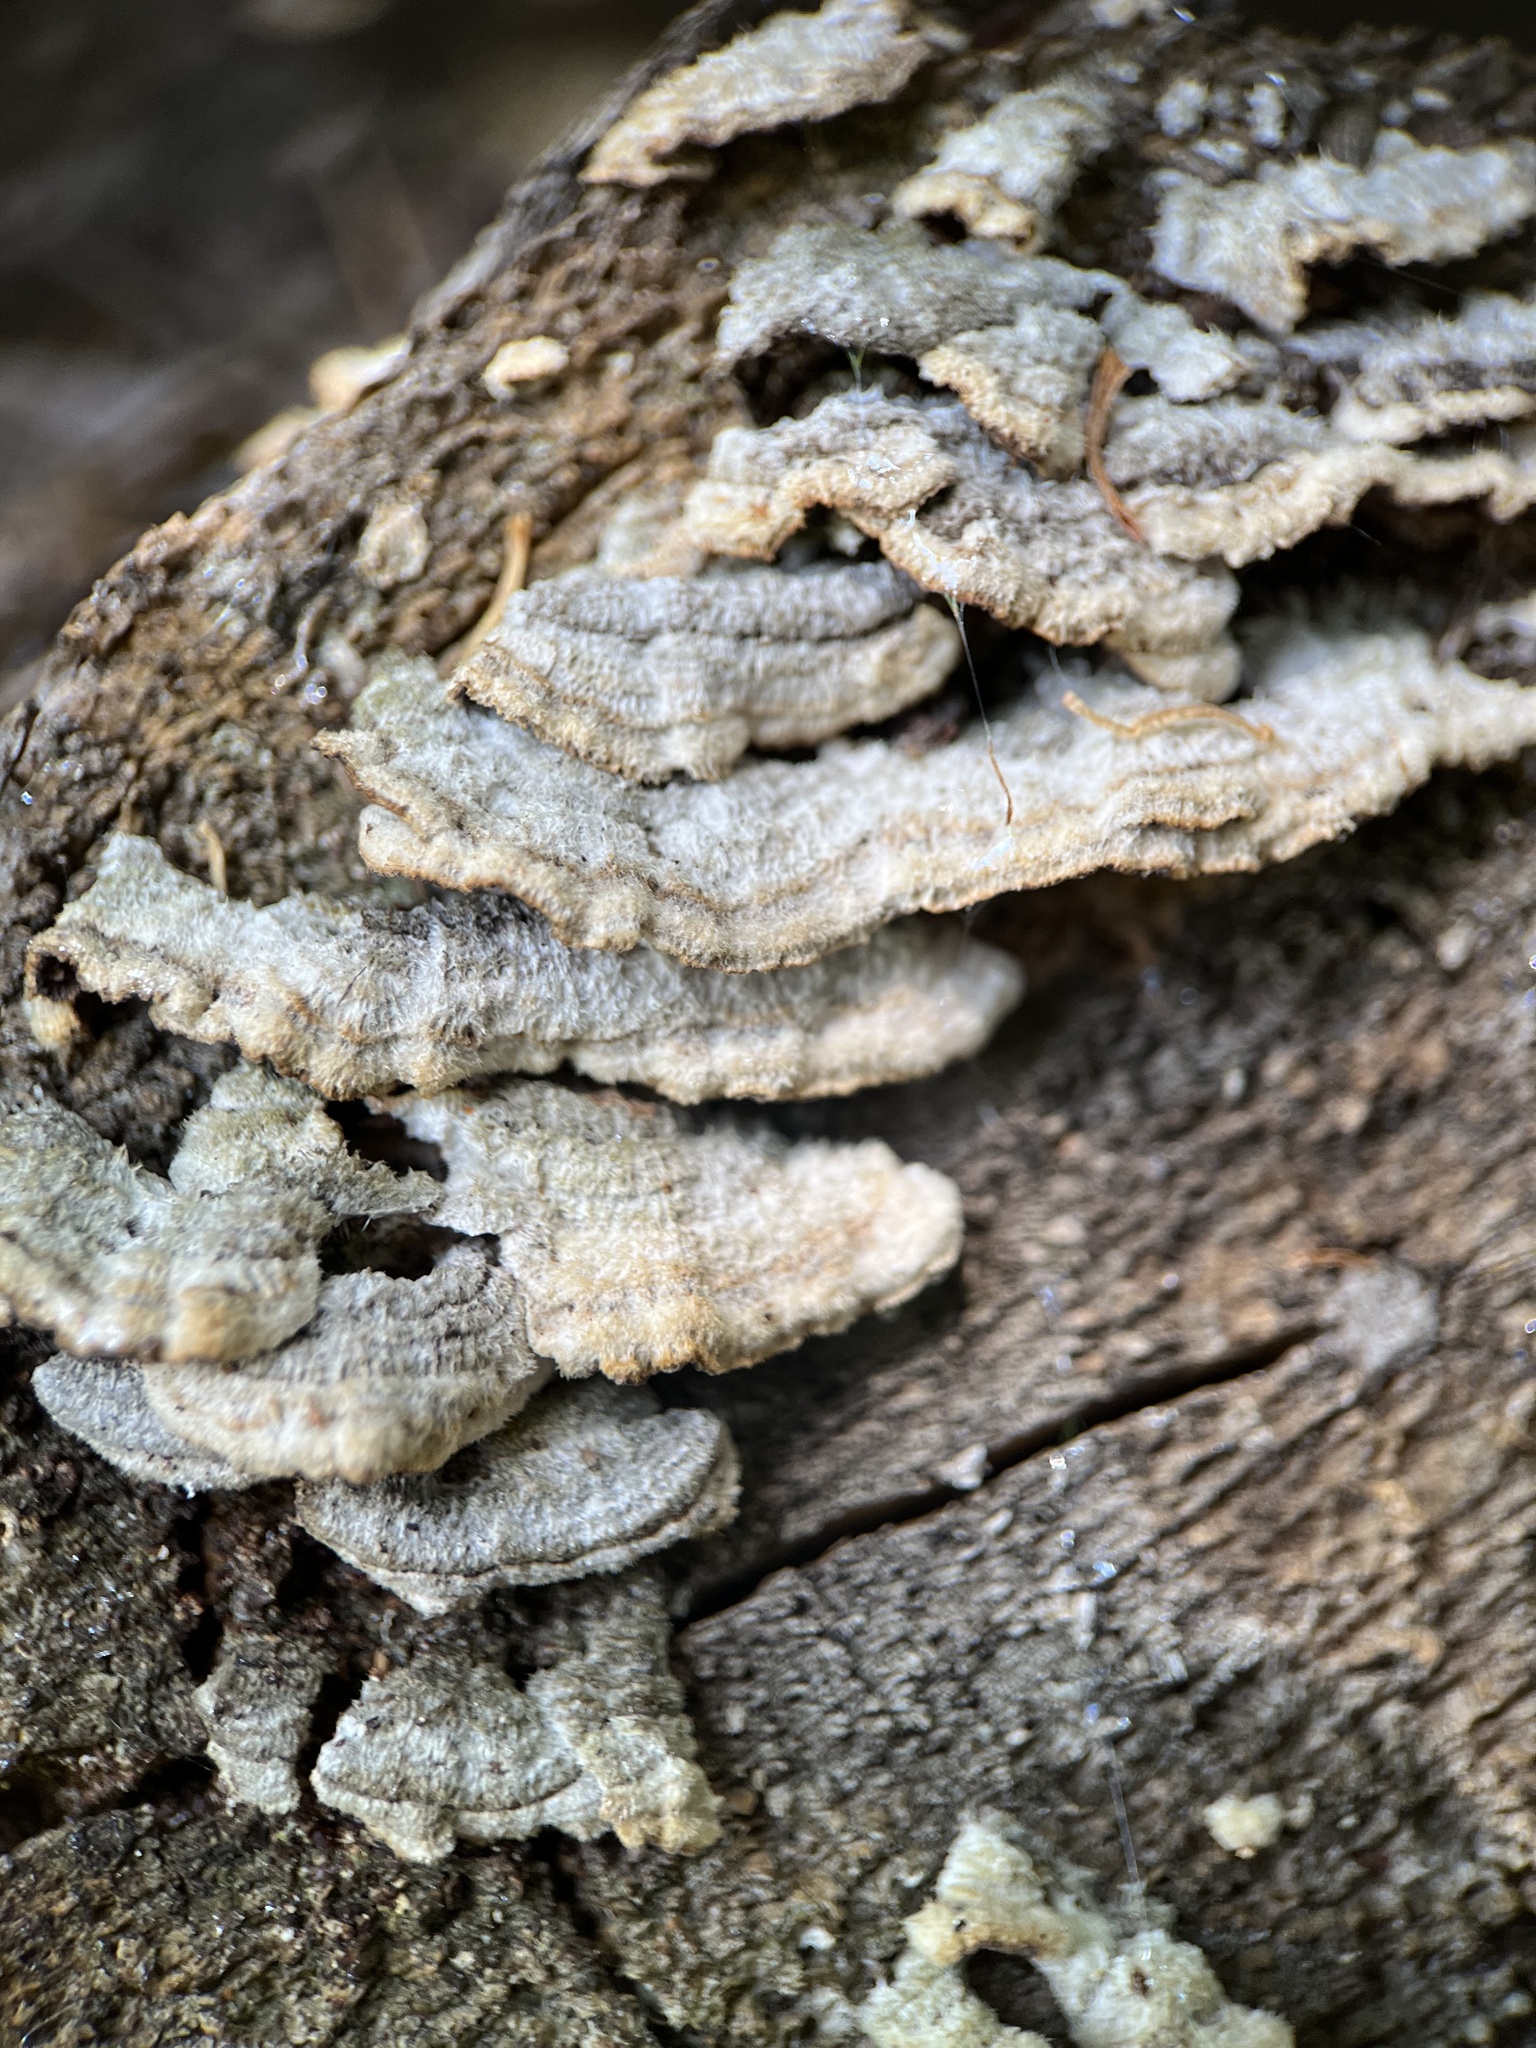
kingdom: Fungi
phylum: Basidiomycota
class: Agaricomycetes
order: Hymenochaetales
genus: Trichaptum
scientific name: Trichaptum abietinum
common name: Purplepore bracket
